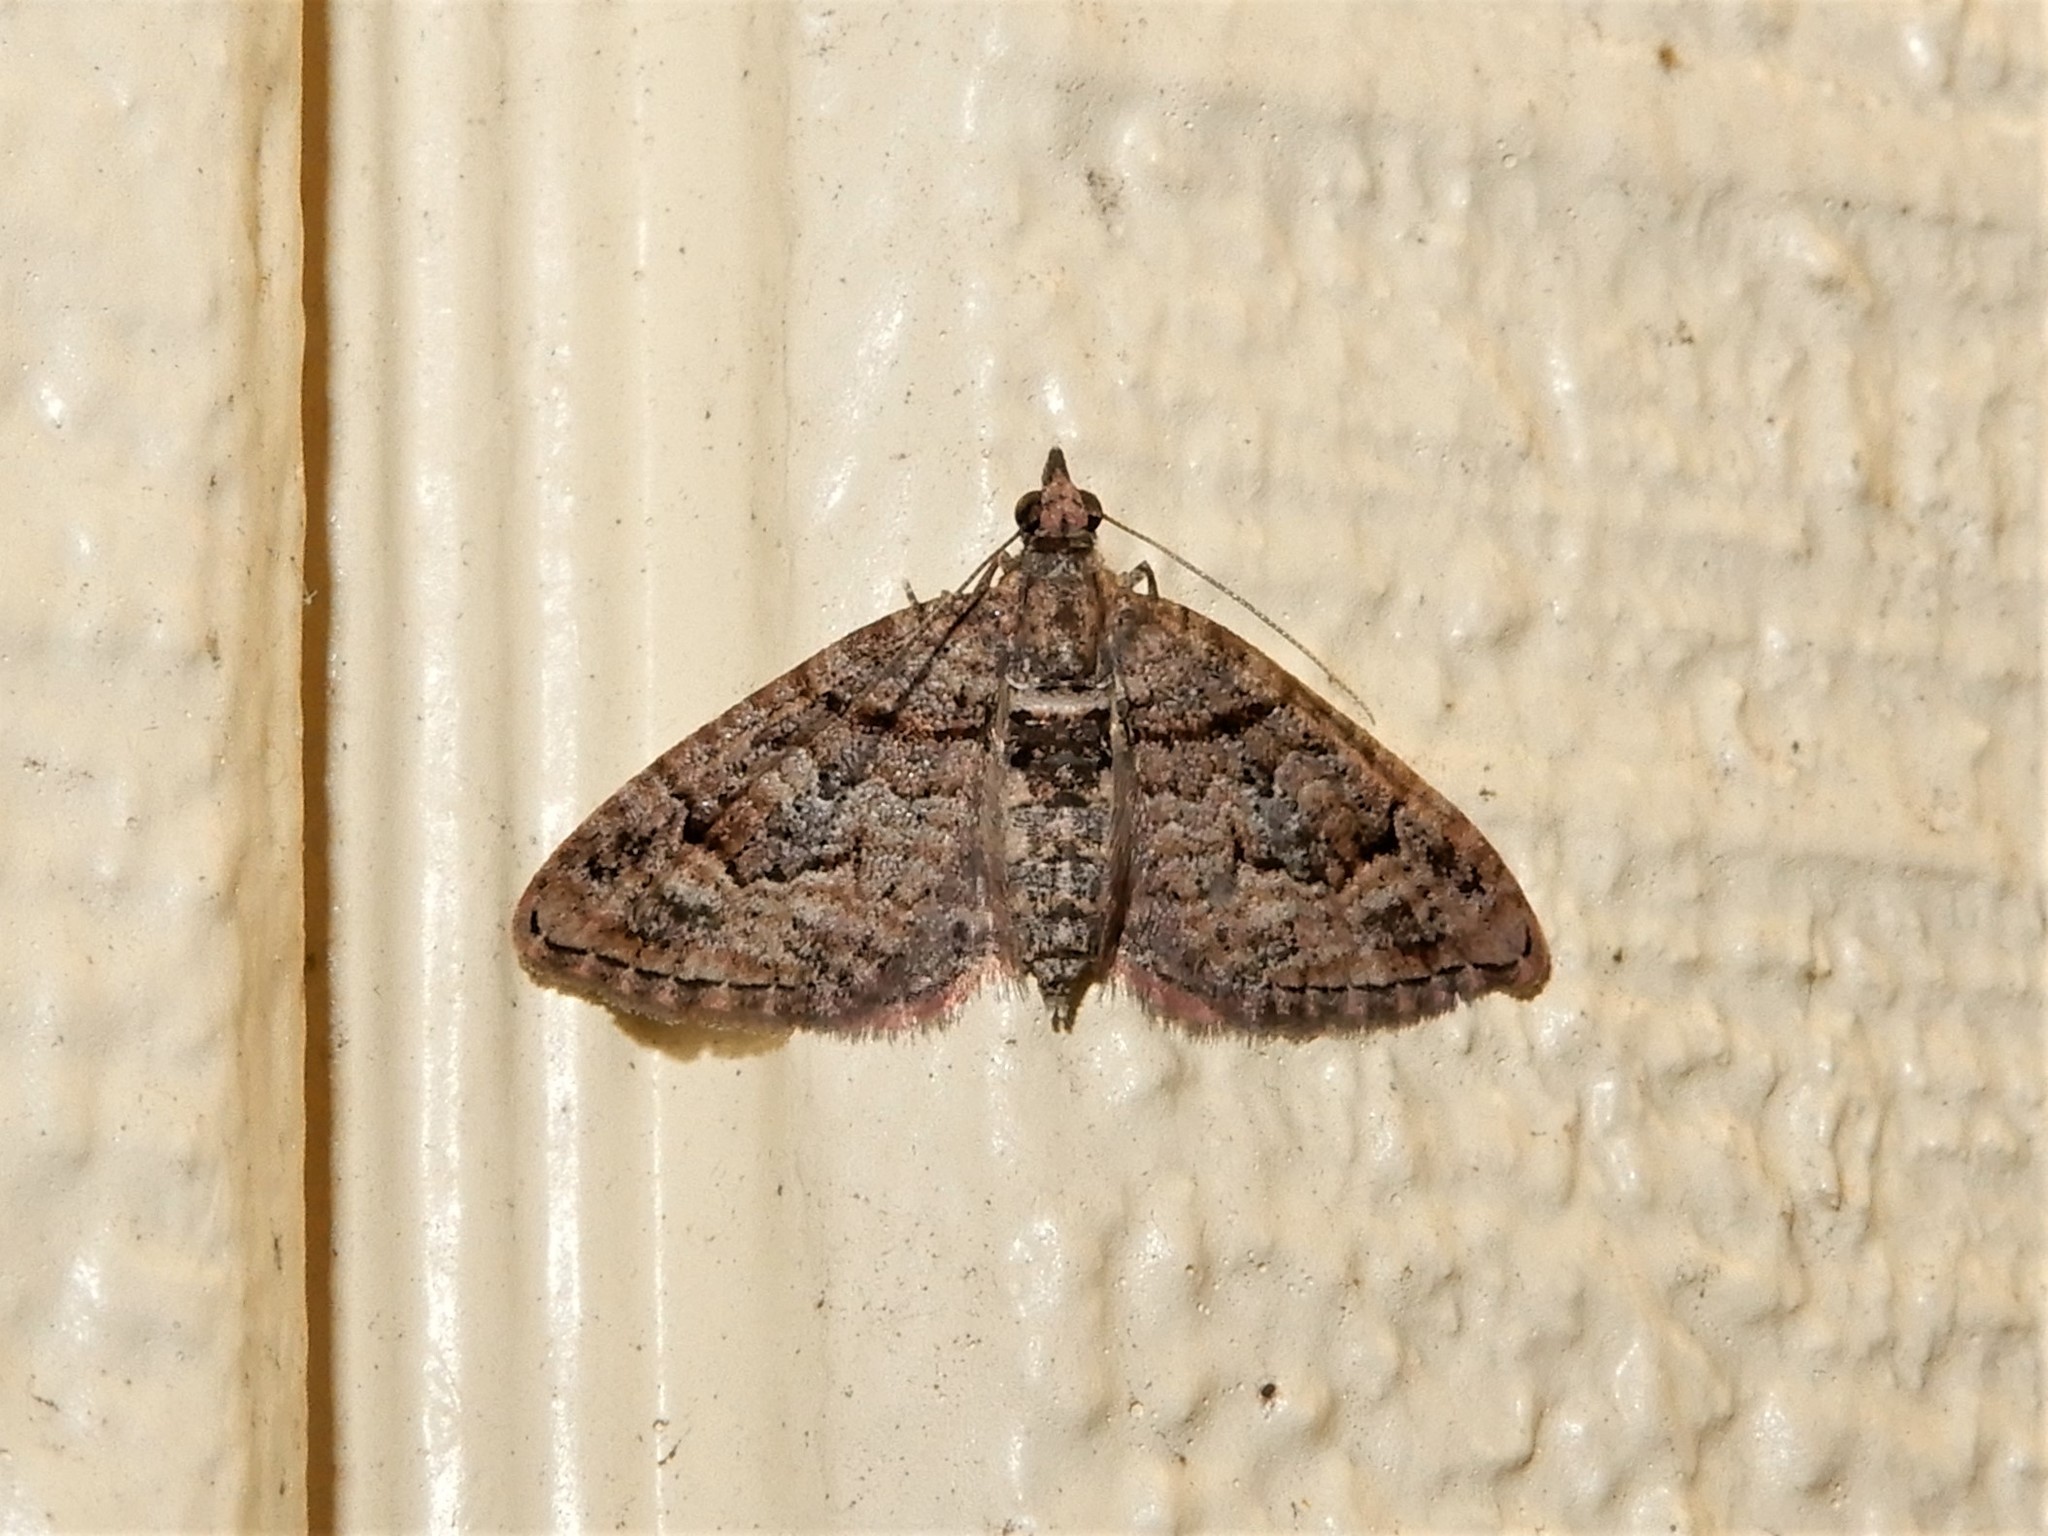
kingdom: Animalia
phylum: Arthropoda
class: Insecta
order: Lepidoptera
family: Geometridae
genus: Phrissogonus
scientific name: Phrissogonus laticostata
